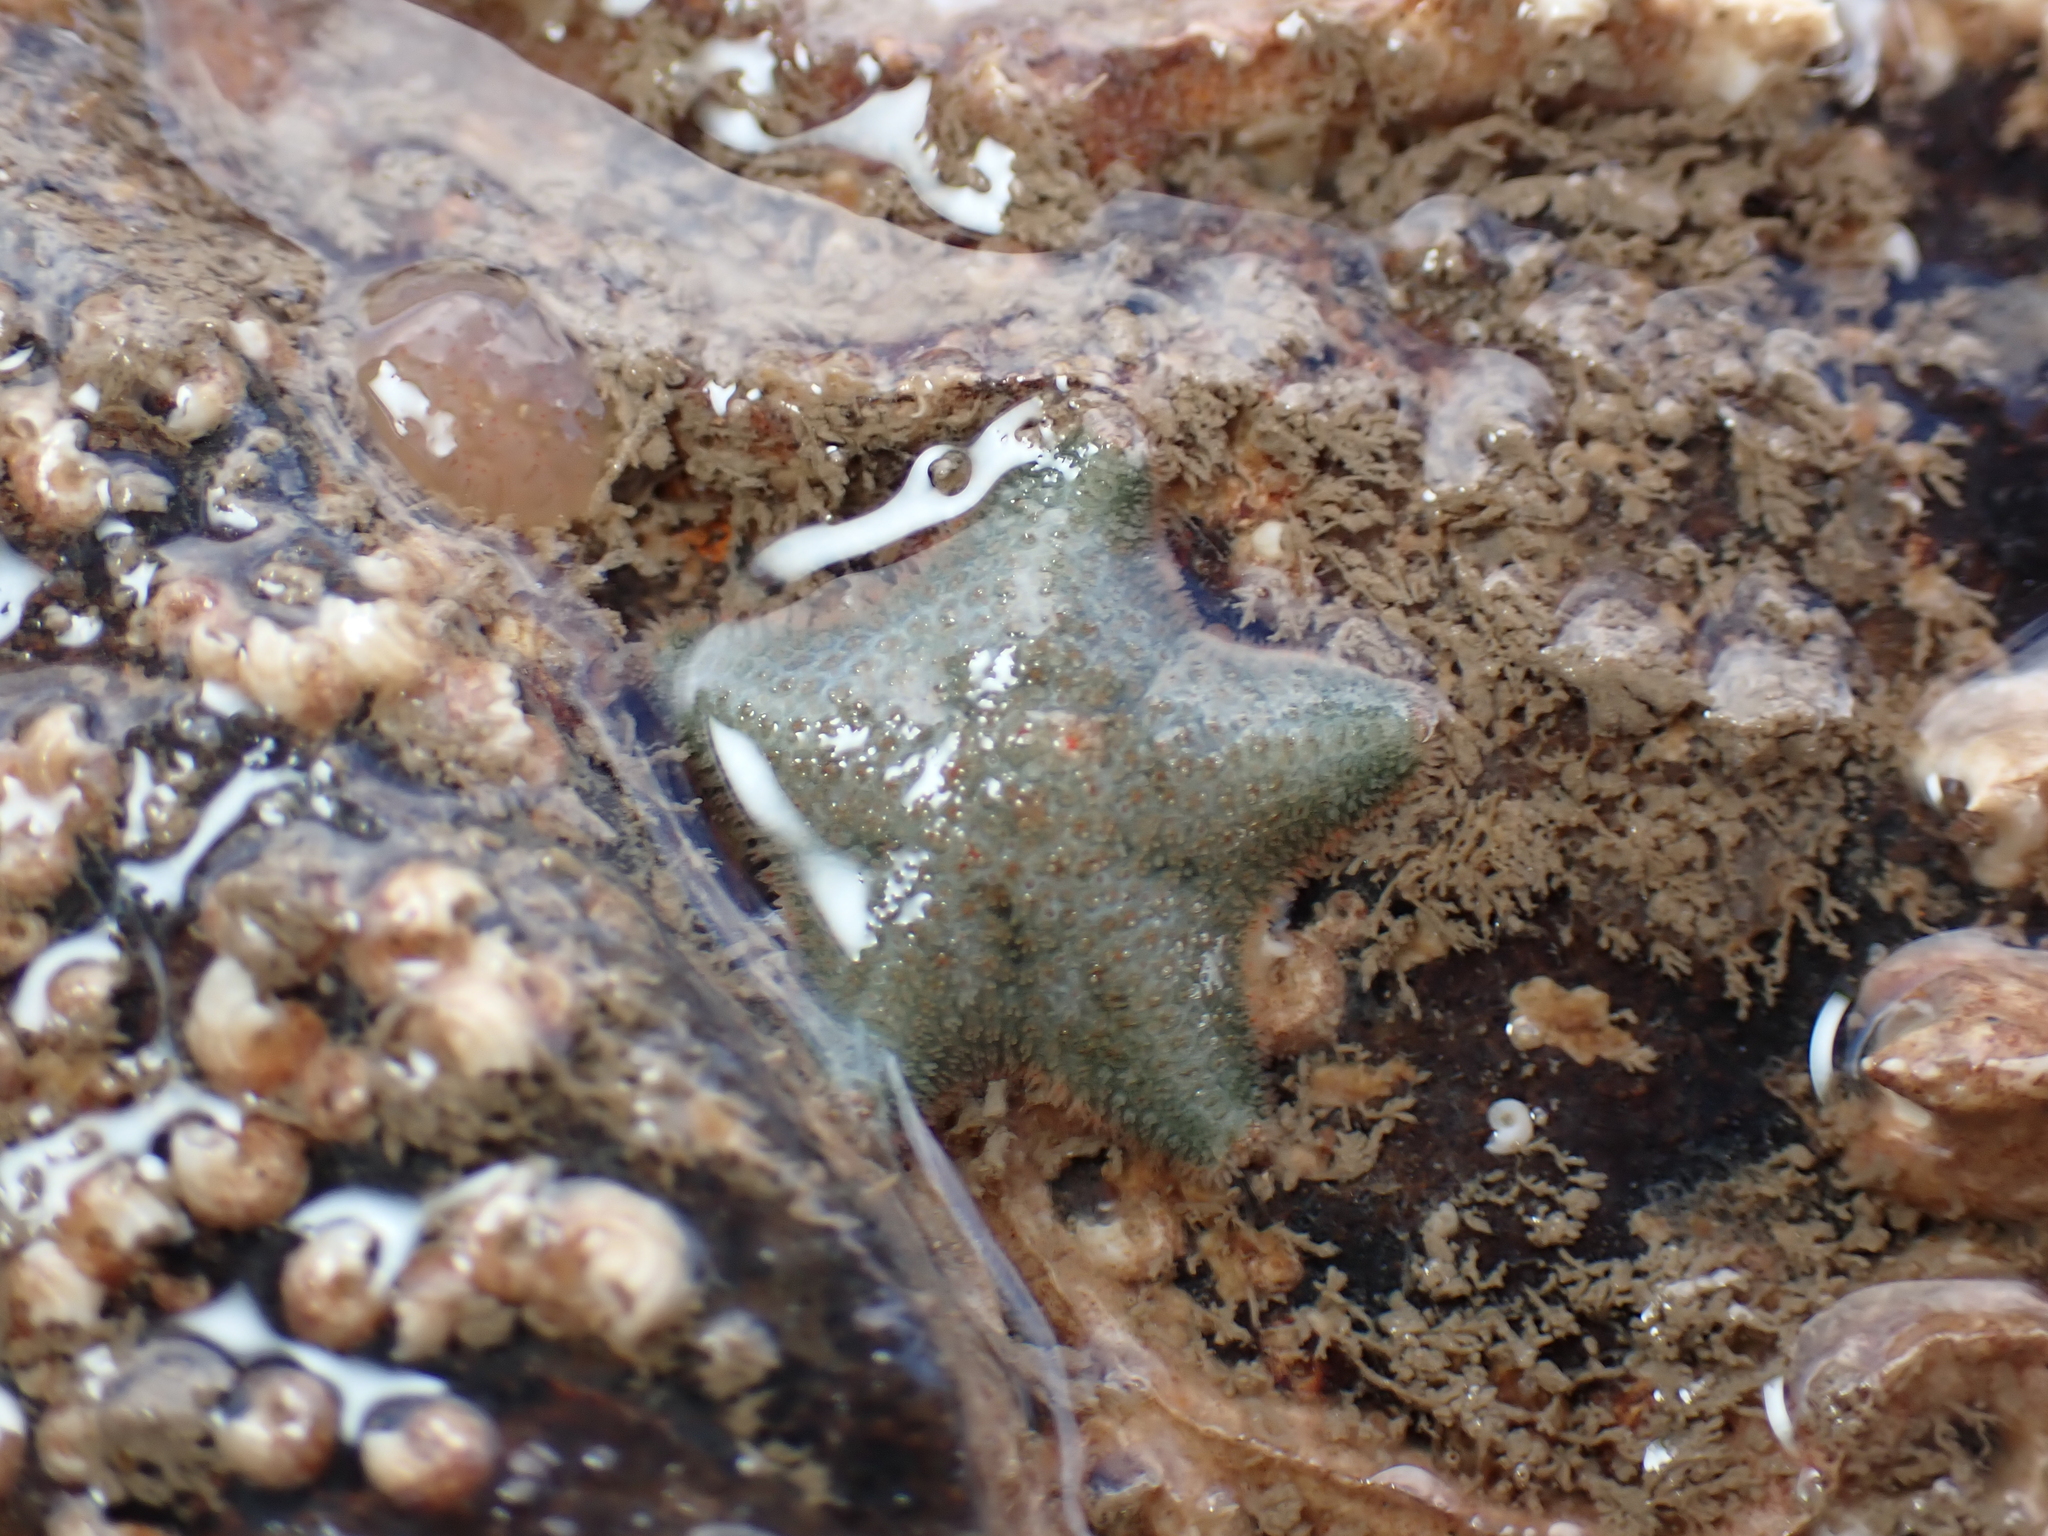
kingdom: Animalia
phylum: Echinodermata
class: Asteroidea
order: Valvatida
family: Asterinidae
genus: Asterina
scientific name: Asterina gibbosa
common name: Cushion star
